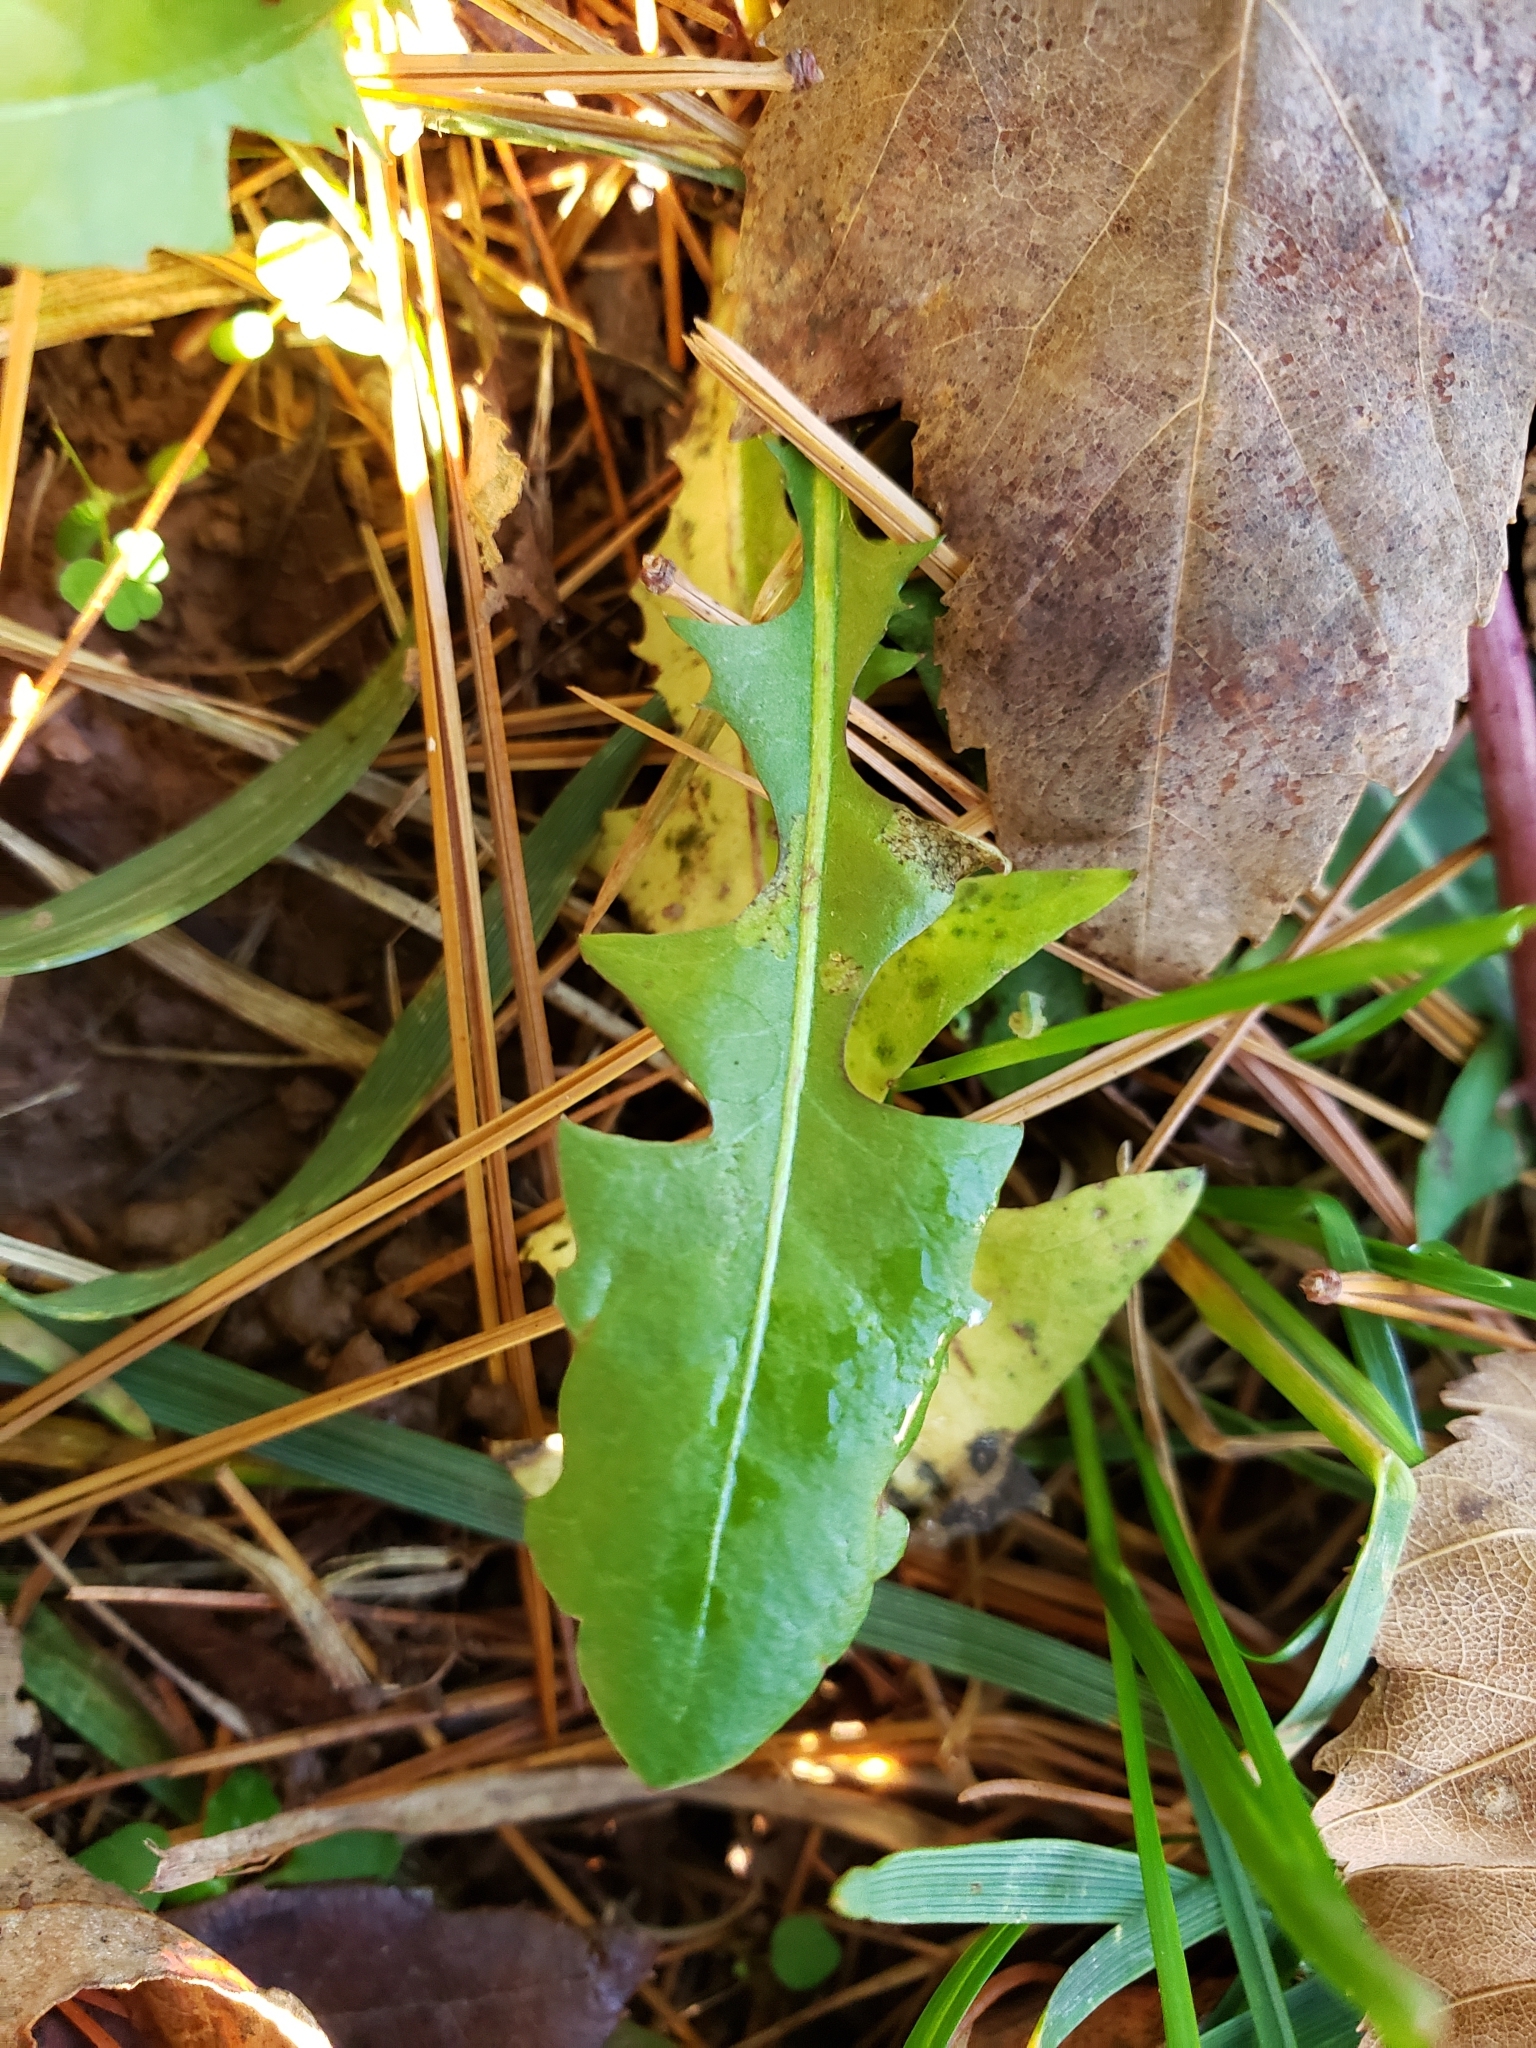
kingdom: Plantae
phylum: Tracheophyta
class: Magnoliopsida
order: Asterales
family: Asteraceae
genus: Taraxacum
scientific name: Taraxacum officinale
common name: Common dandelion
